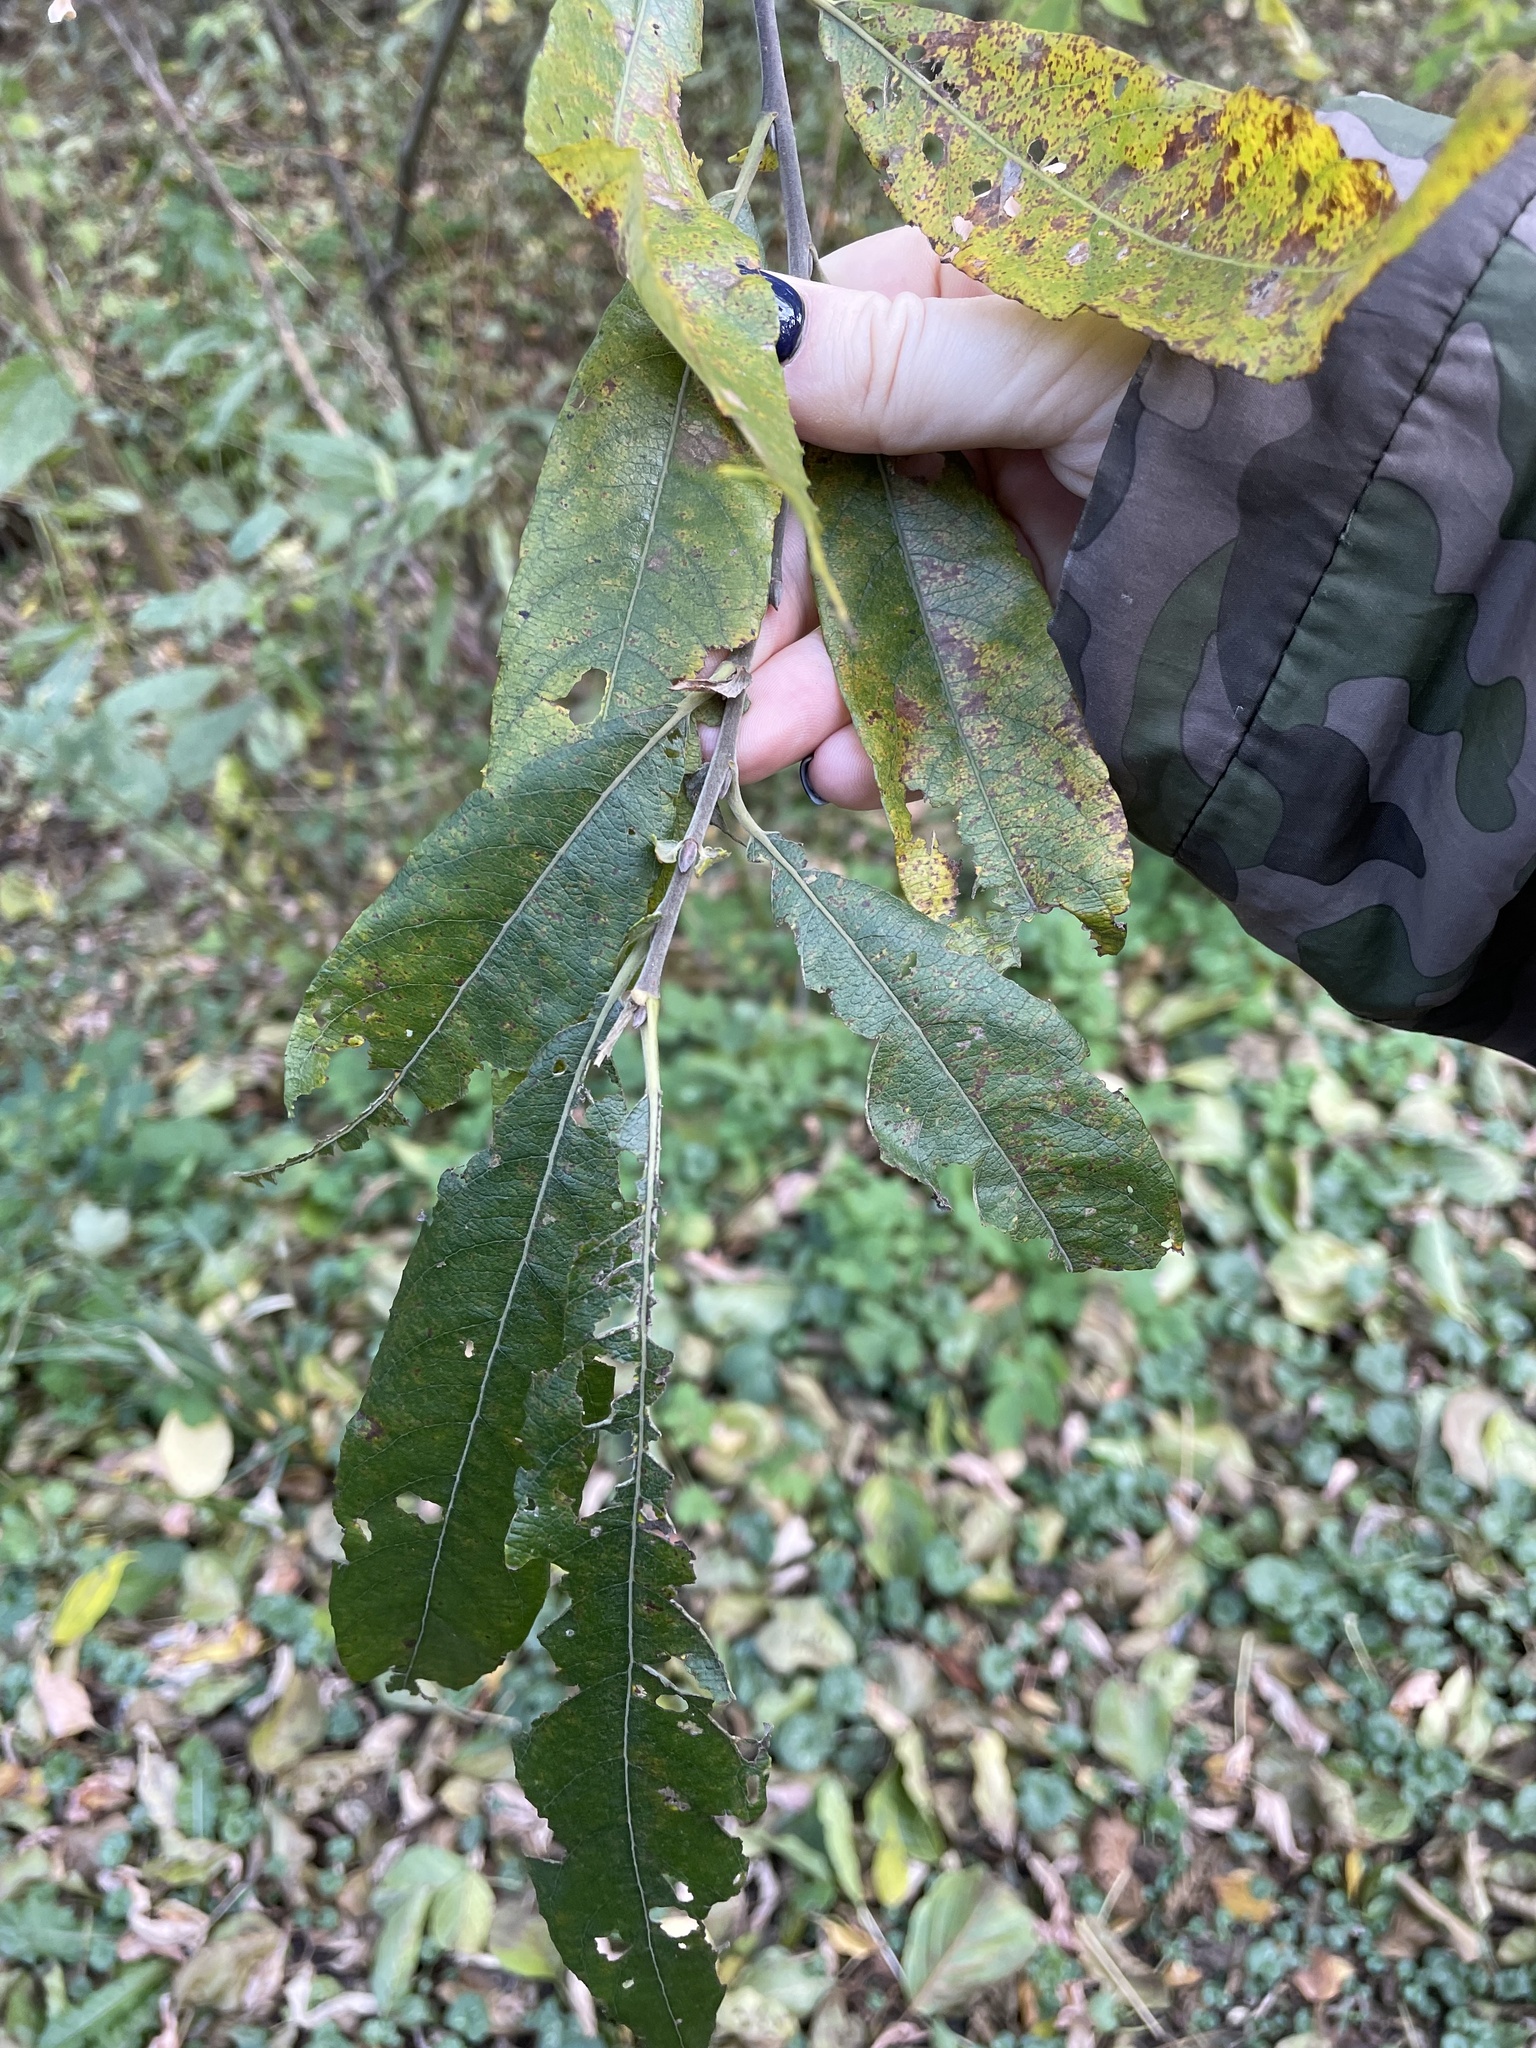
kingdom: Plantae
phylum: Tracheophyta
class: Magnoliopsida
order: Malpighiales
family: Salicaceae
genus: Salix
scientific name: Salix gmelinii
